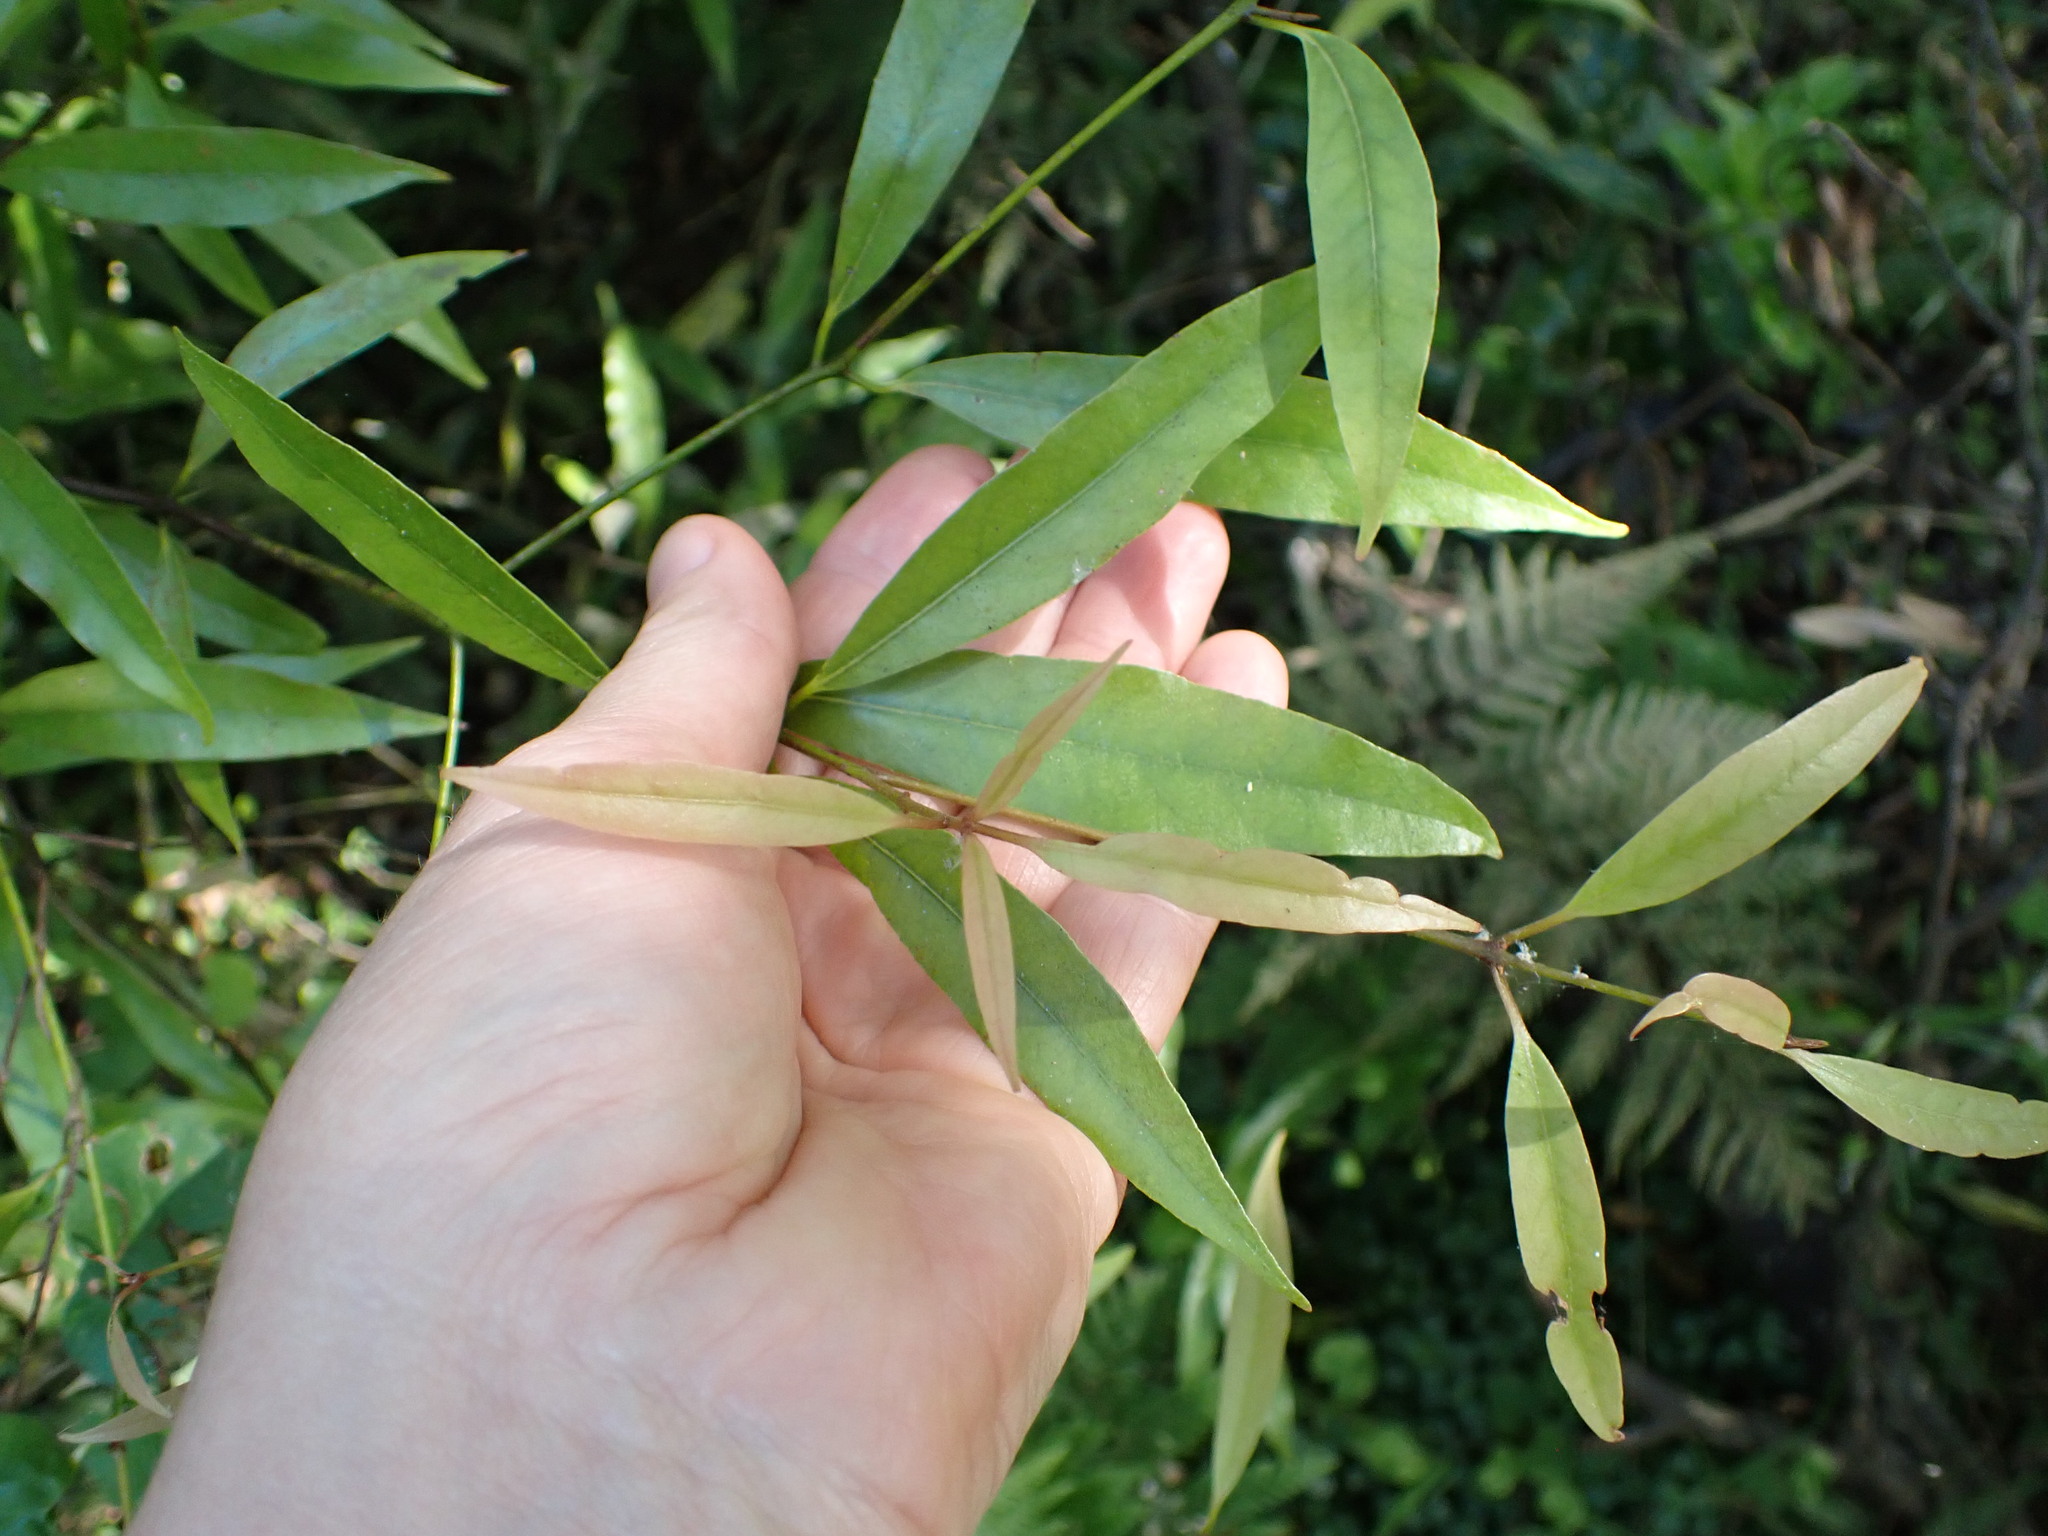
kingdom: Plantae
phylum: Tracheophyta
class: Magnoliopsida
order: Laurales
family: Lauraceae
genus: Beilschmiedia
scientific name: Beilschmiedia tawa
